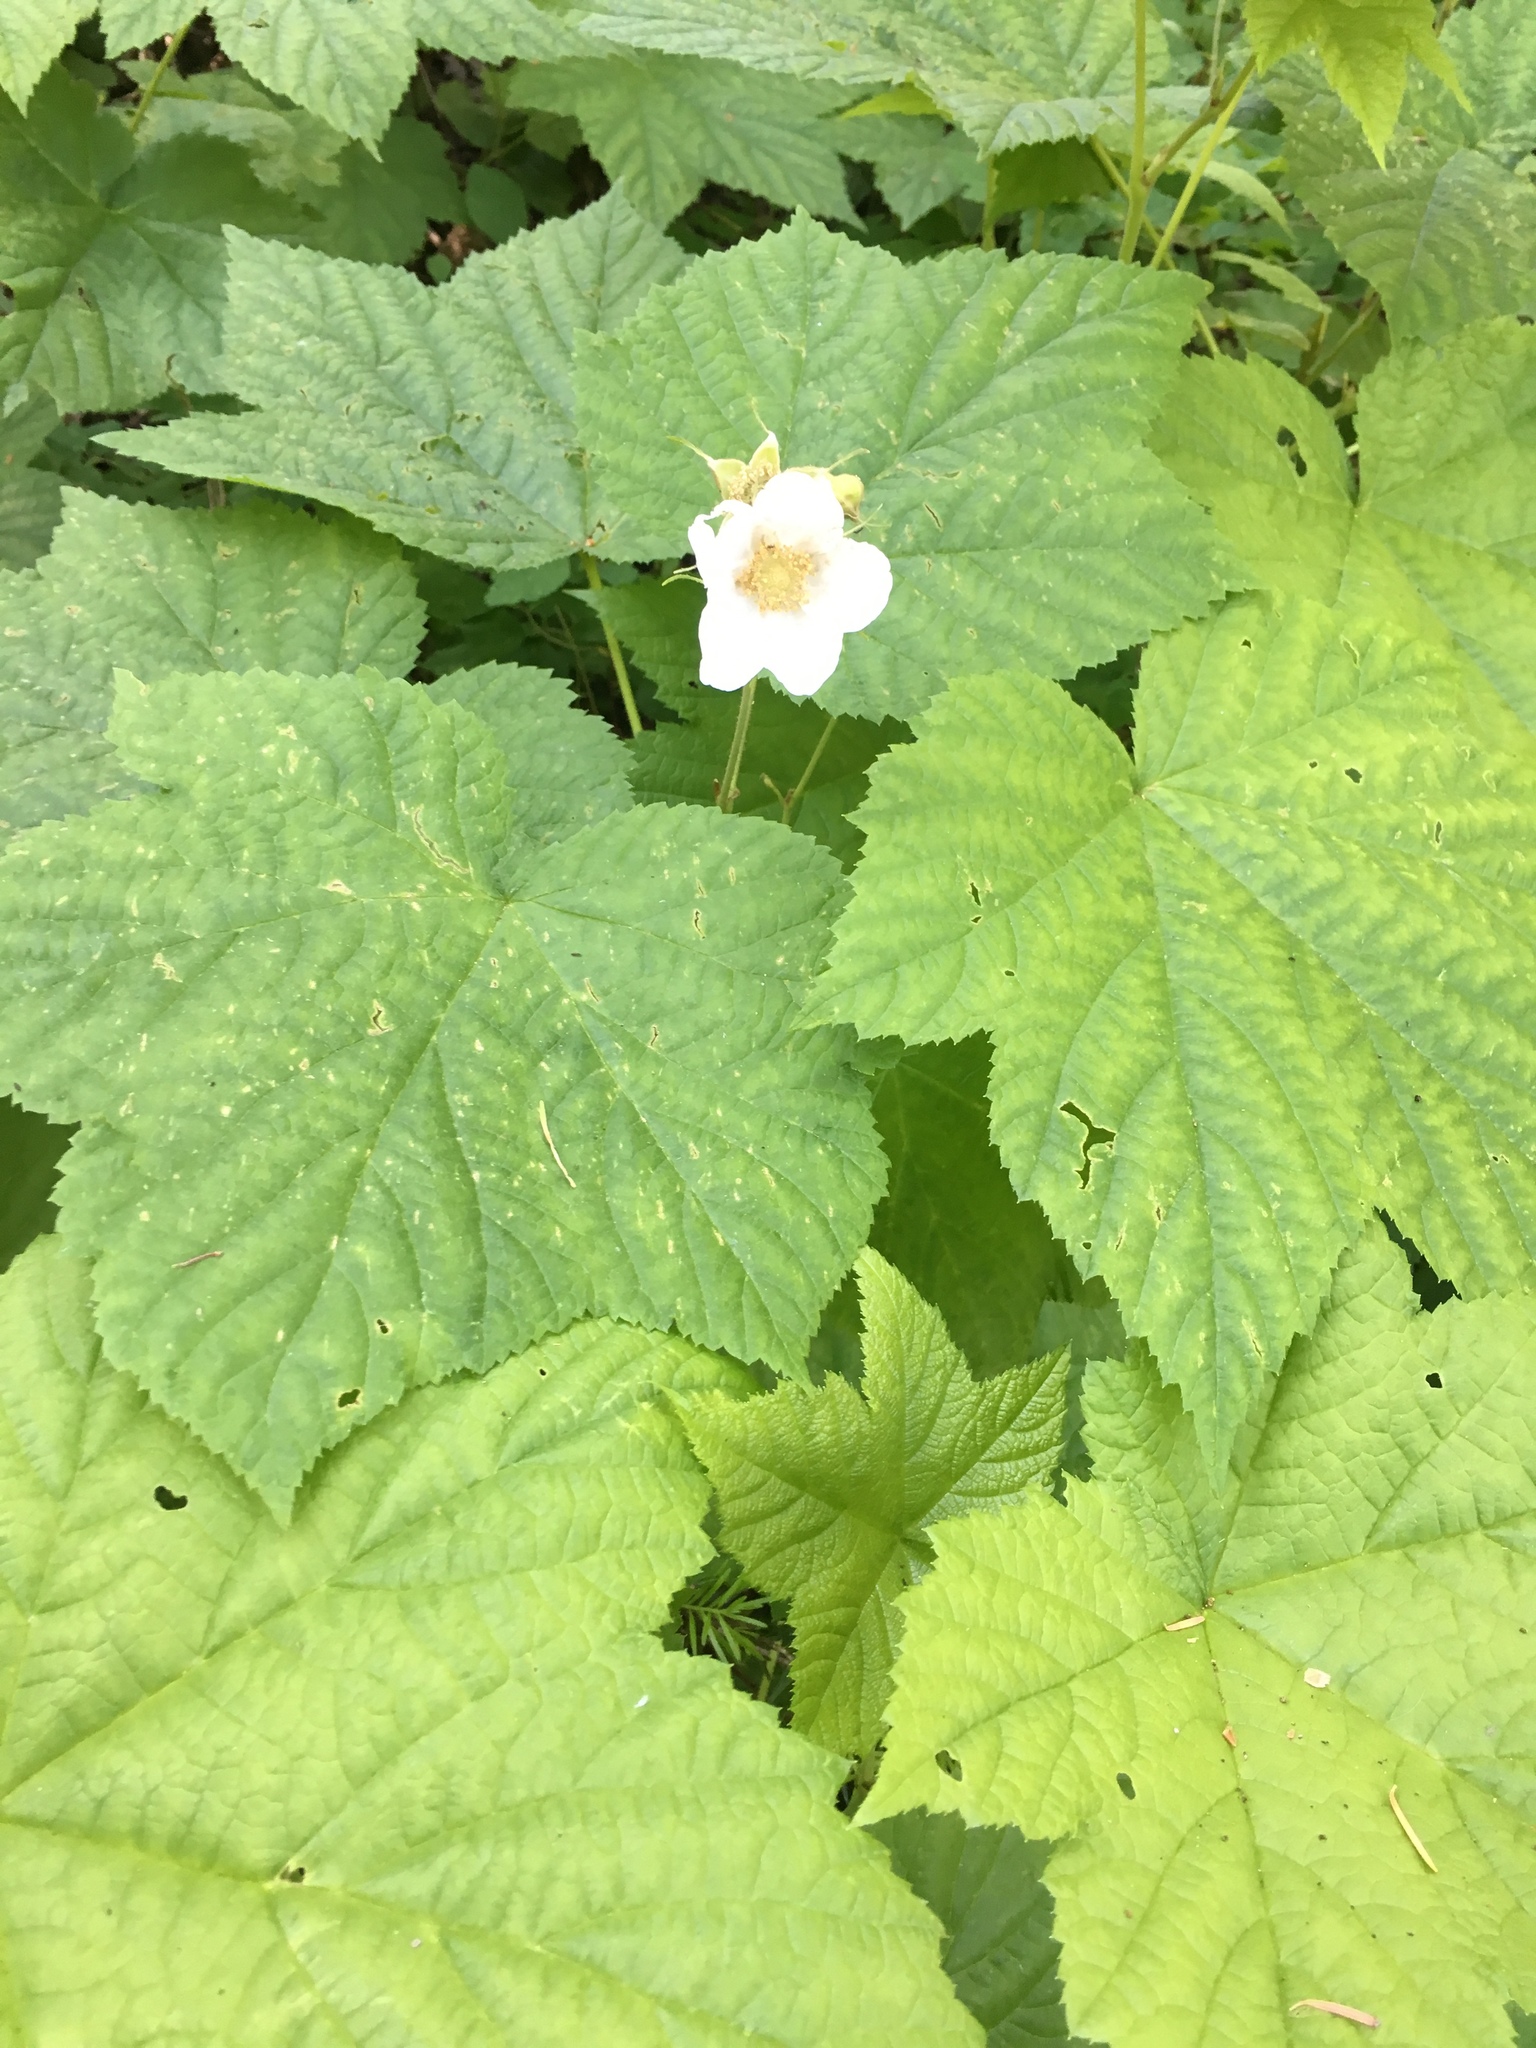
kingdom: Plantae
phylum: Tracheophyta
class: Magnoliopsida
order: Rosales
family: Rosaceae
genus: Rubus
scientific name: Rubus parviflorus
